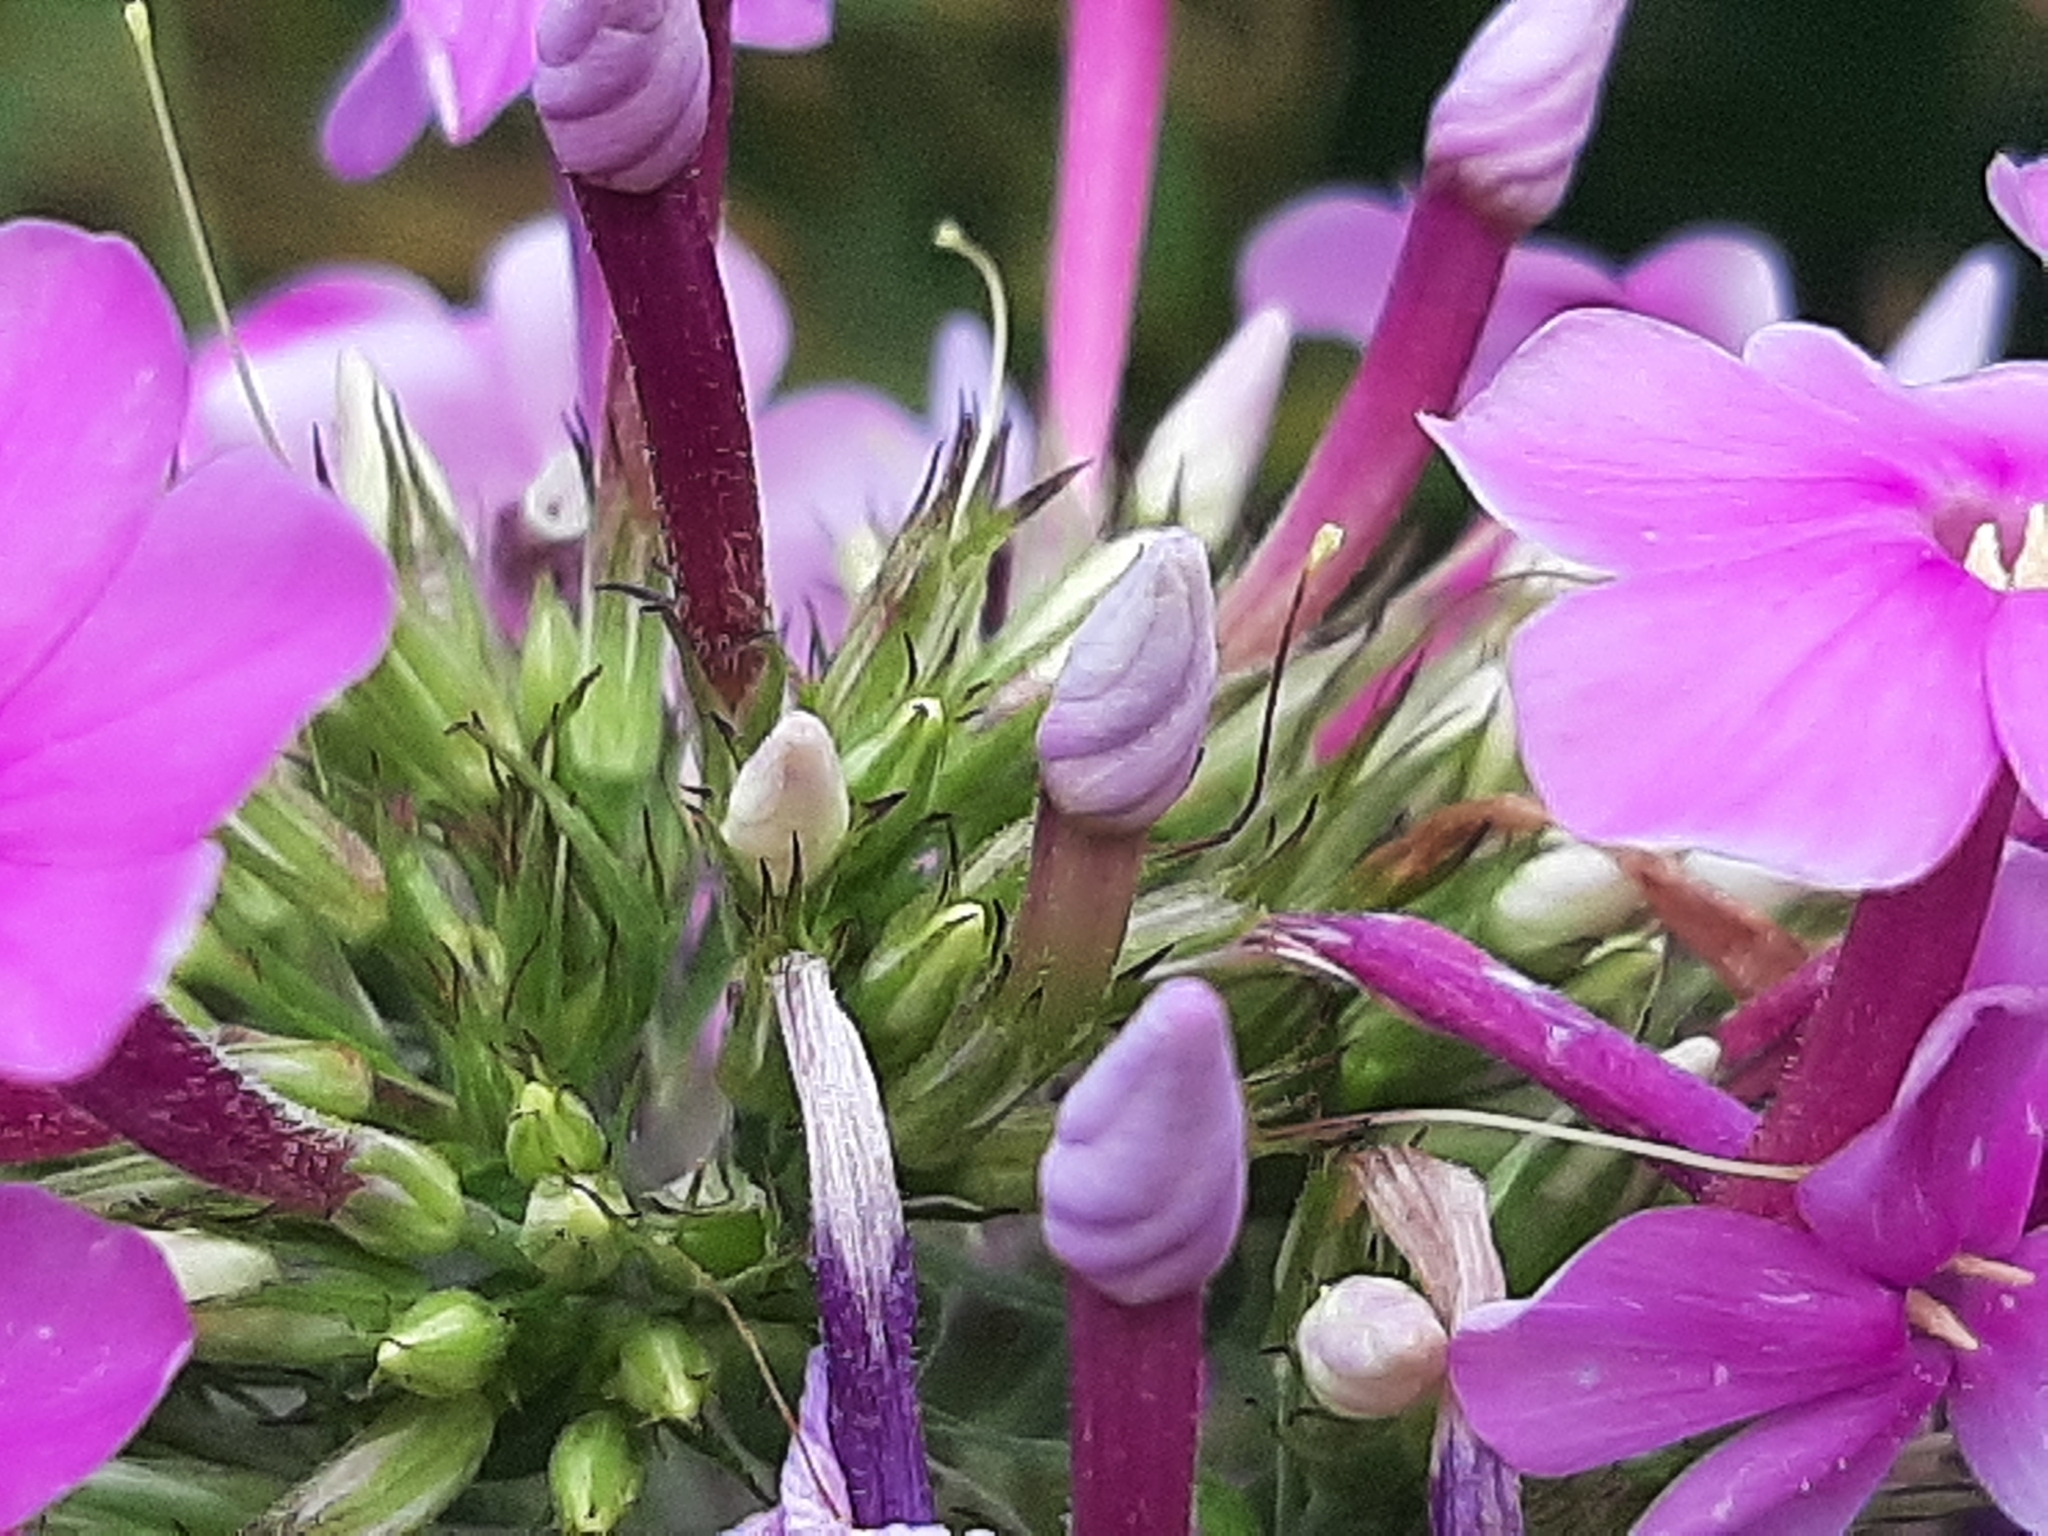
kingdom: Plantae
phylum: Tracheophyta
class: Magnoliopsida
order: Ericales
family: Polemoniaceae
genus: Phlox
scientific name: Phlox paniculata
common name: Fall phlox
